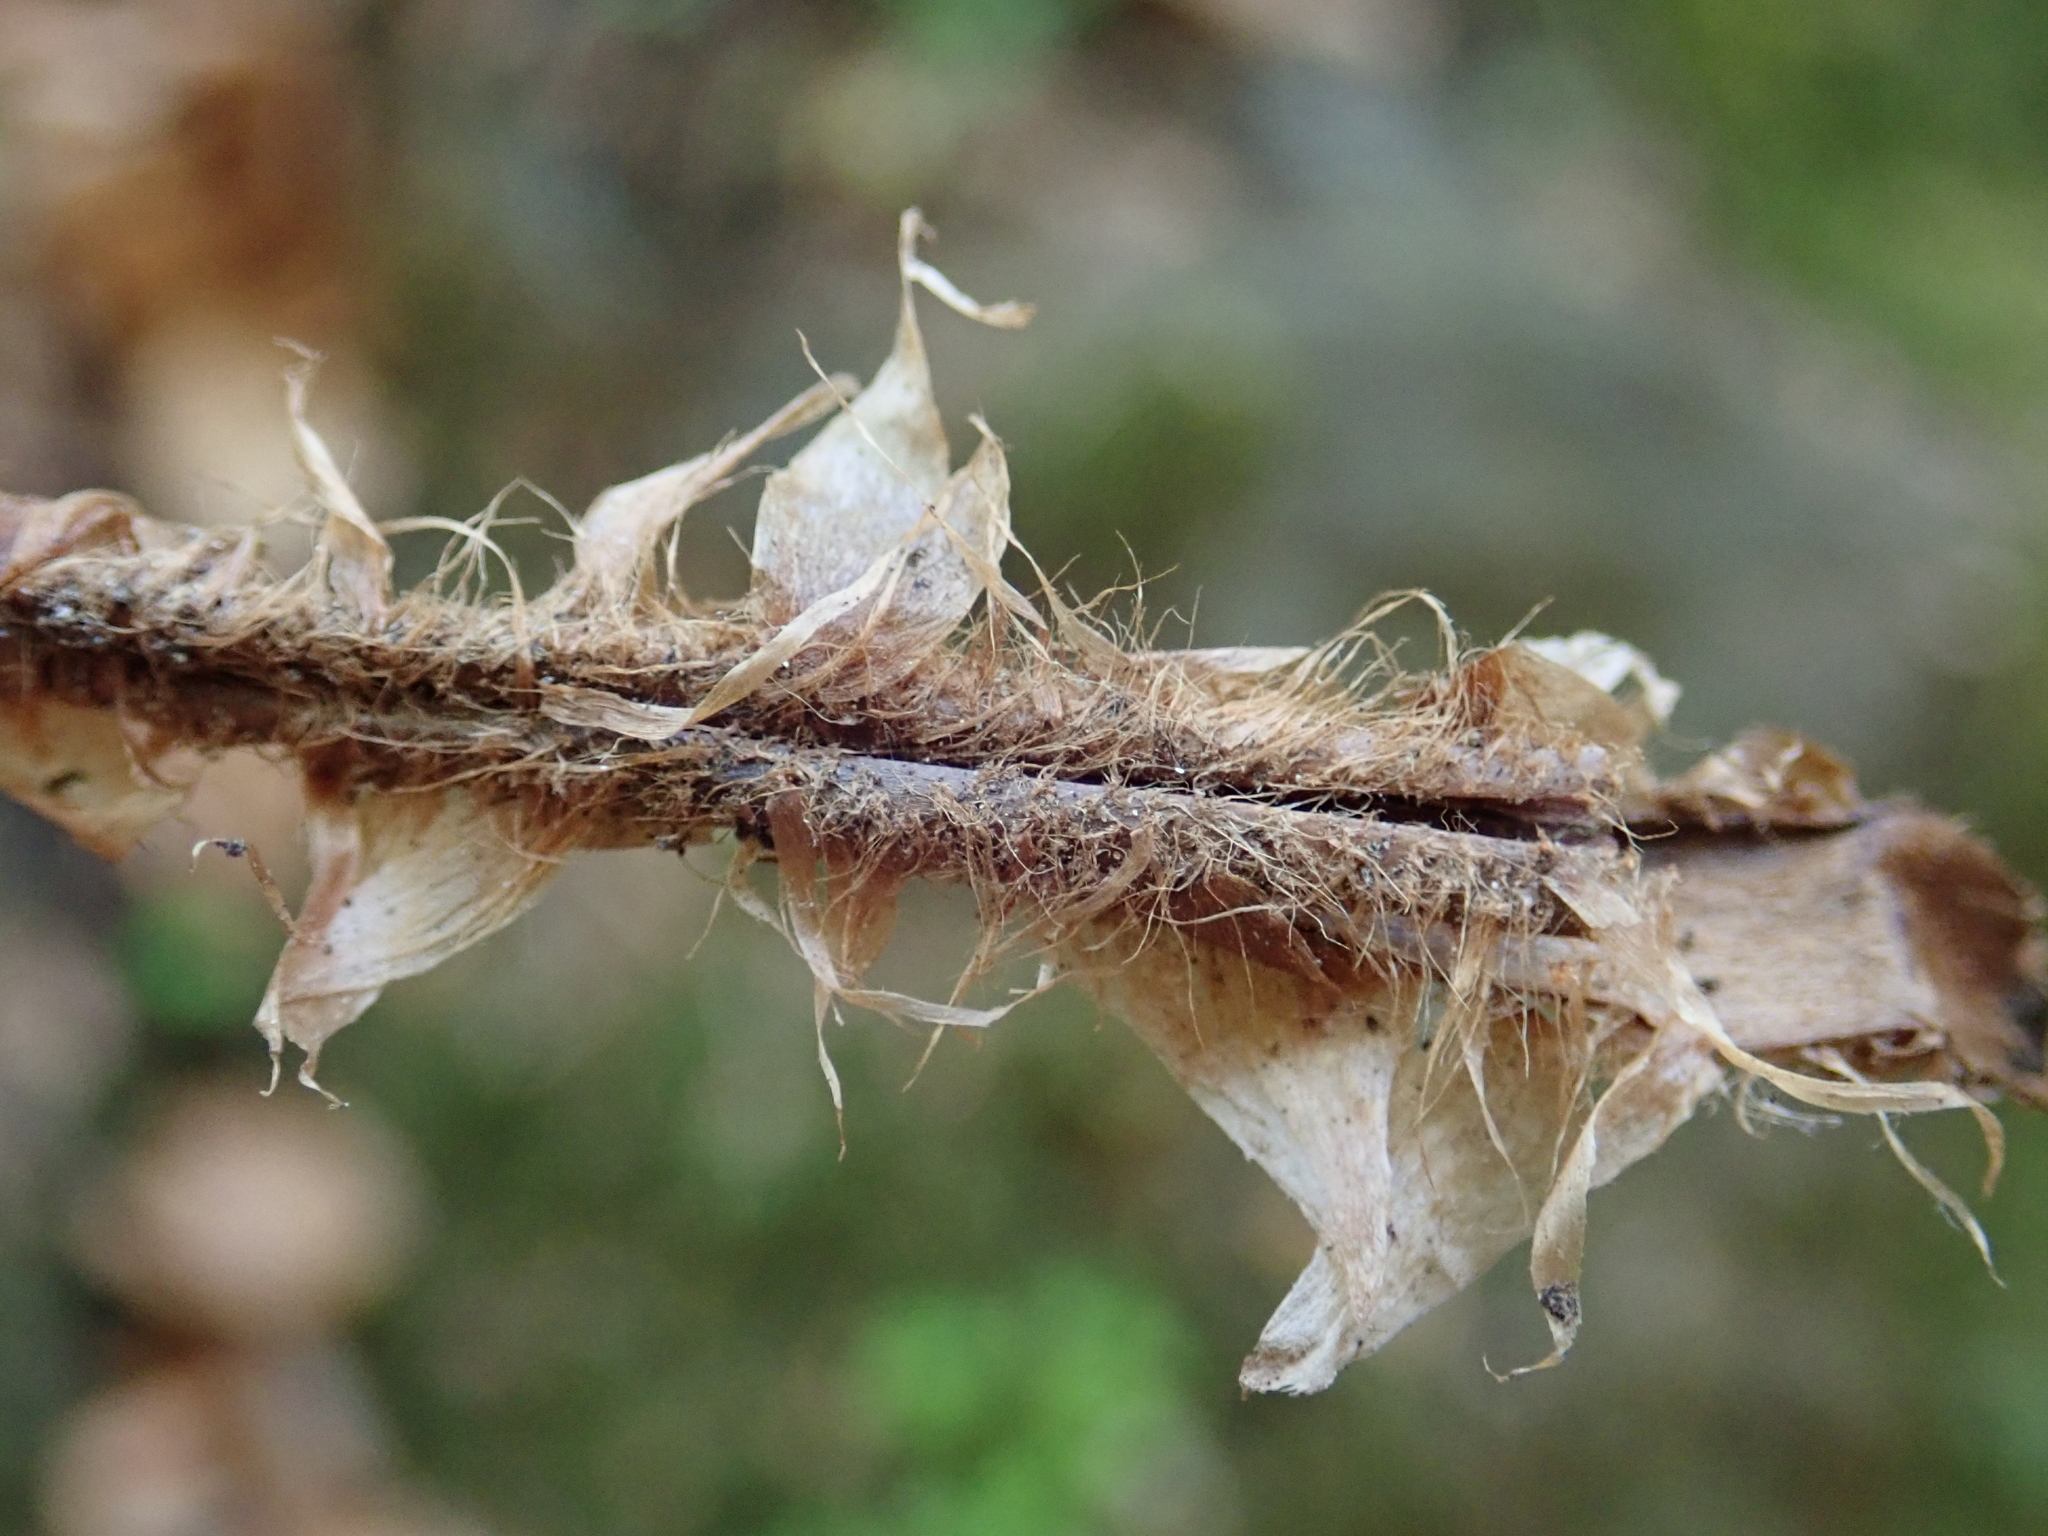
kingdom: Plantae
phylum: Tracheophyta
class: Polypodiopsida
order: Polypodiales
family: Dryopteridaceae
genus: Polystichum
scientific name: Polystichum braunii
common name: Braun's holly fern
